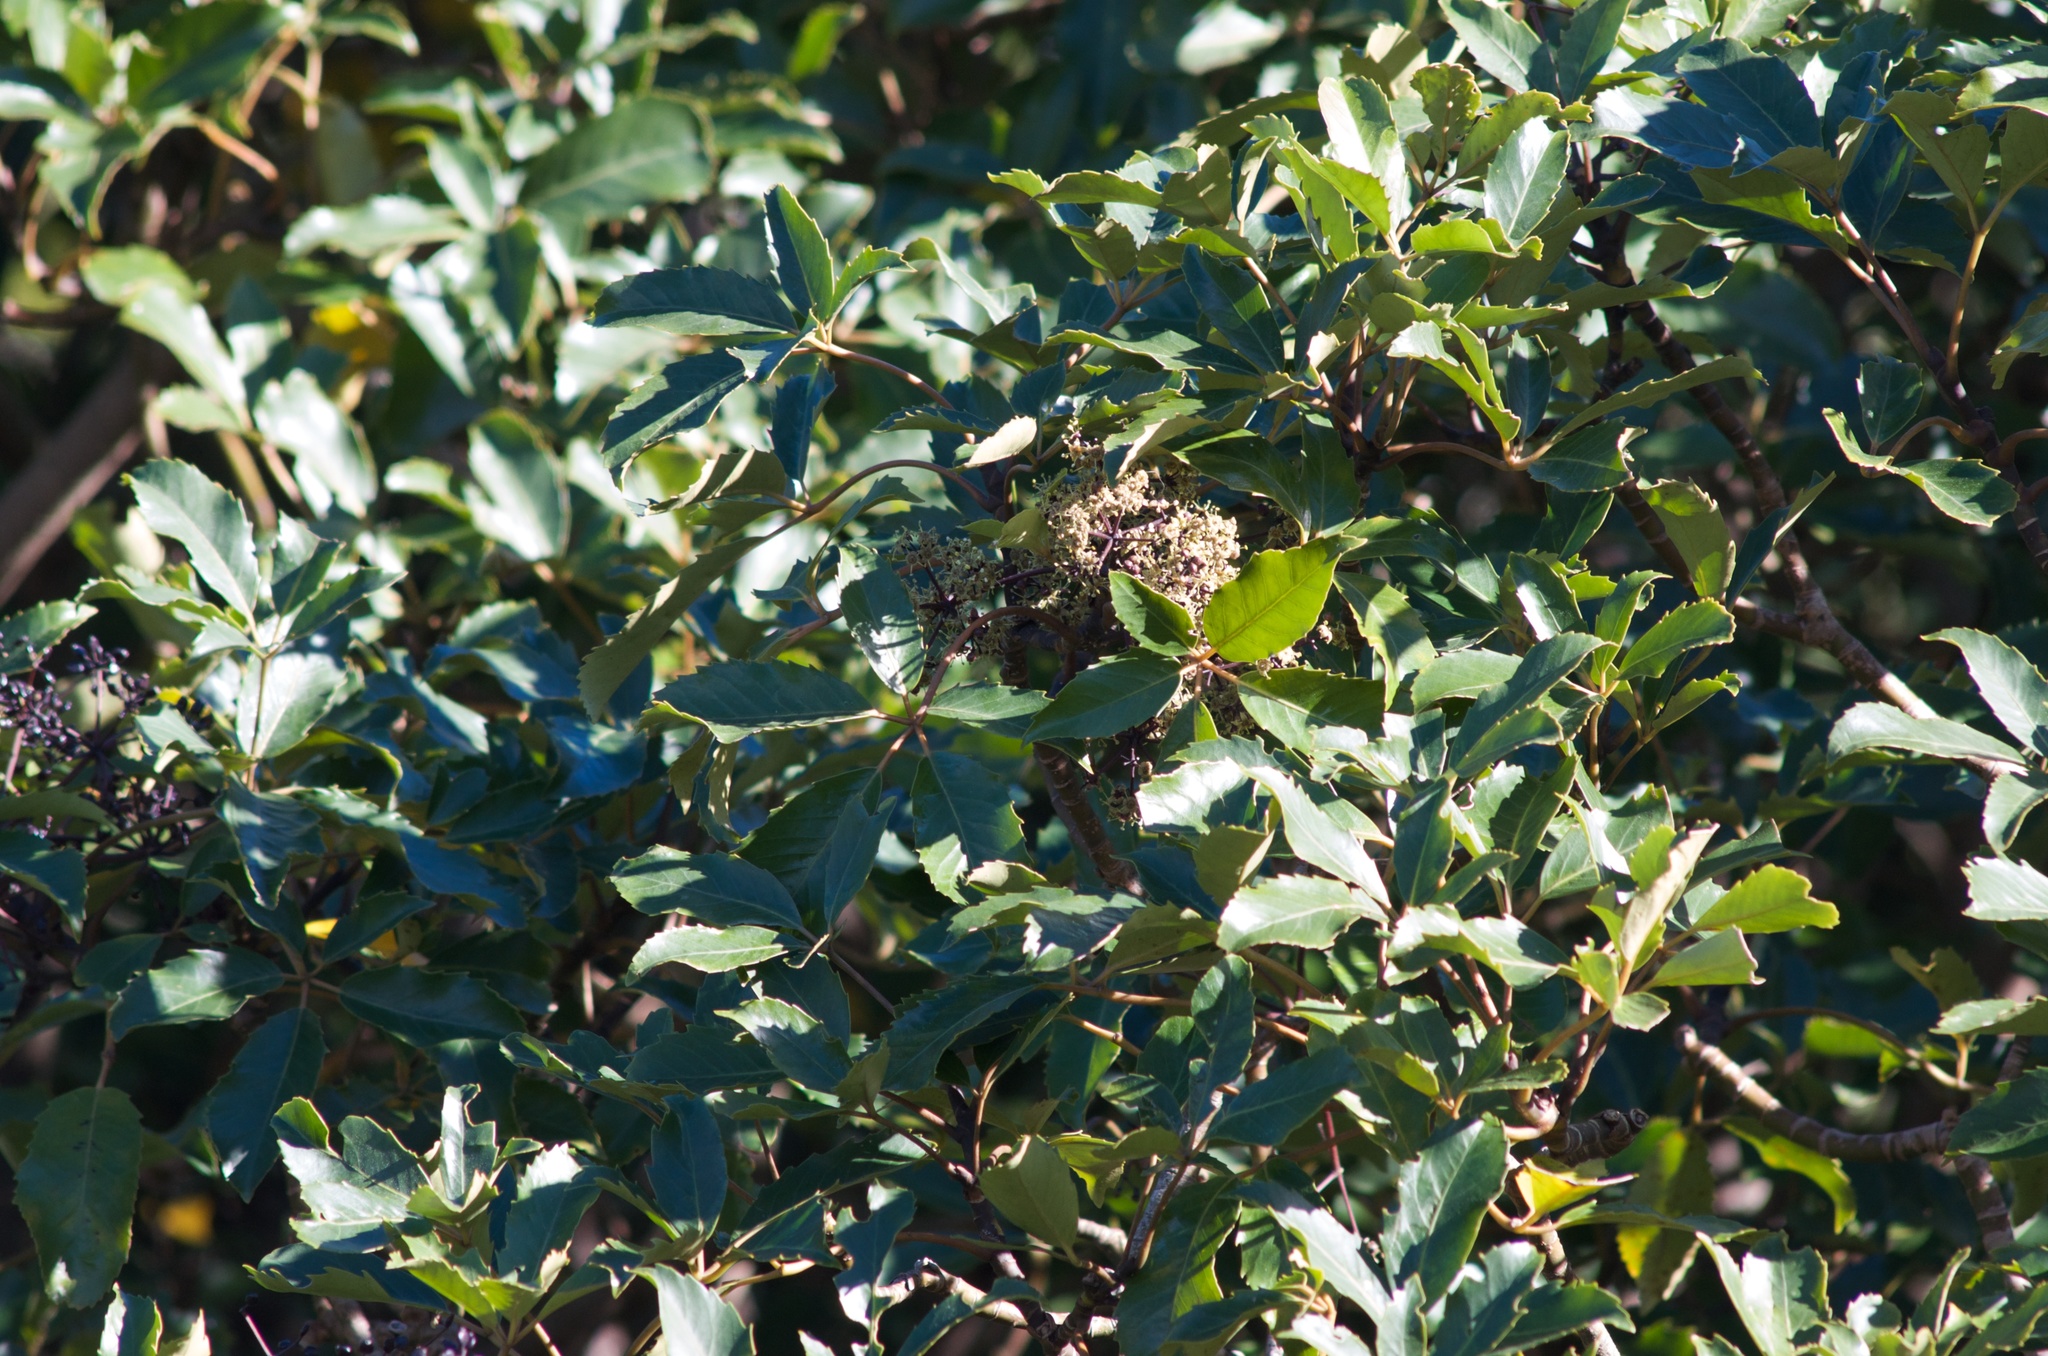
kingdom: Plantae
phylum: Tracheophyta
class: Magnoliopsida
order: Apiales
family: Araliaceae
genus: Neopanax
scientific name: Neopanax arboreus
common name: Five-fingers
